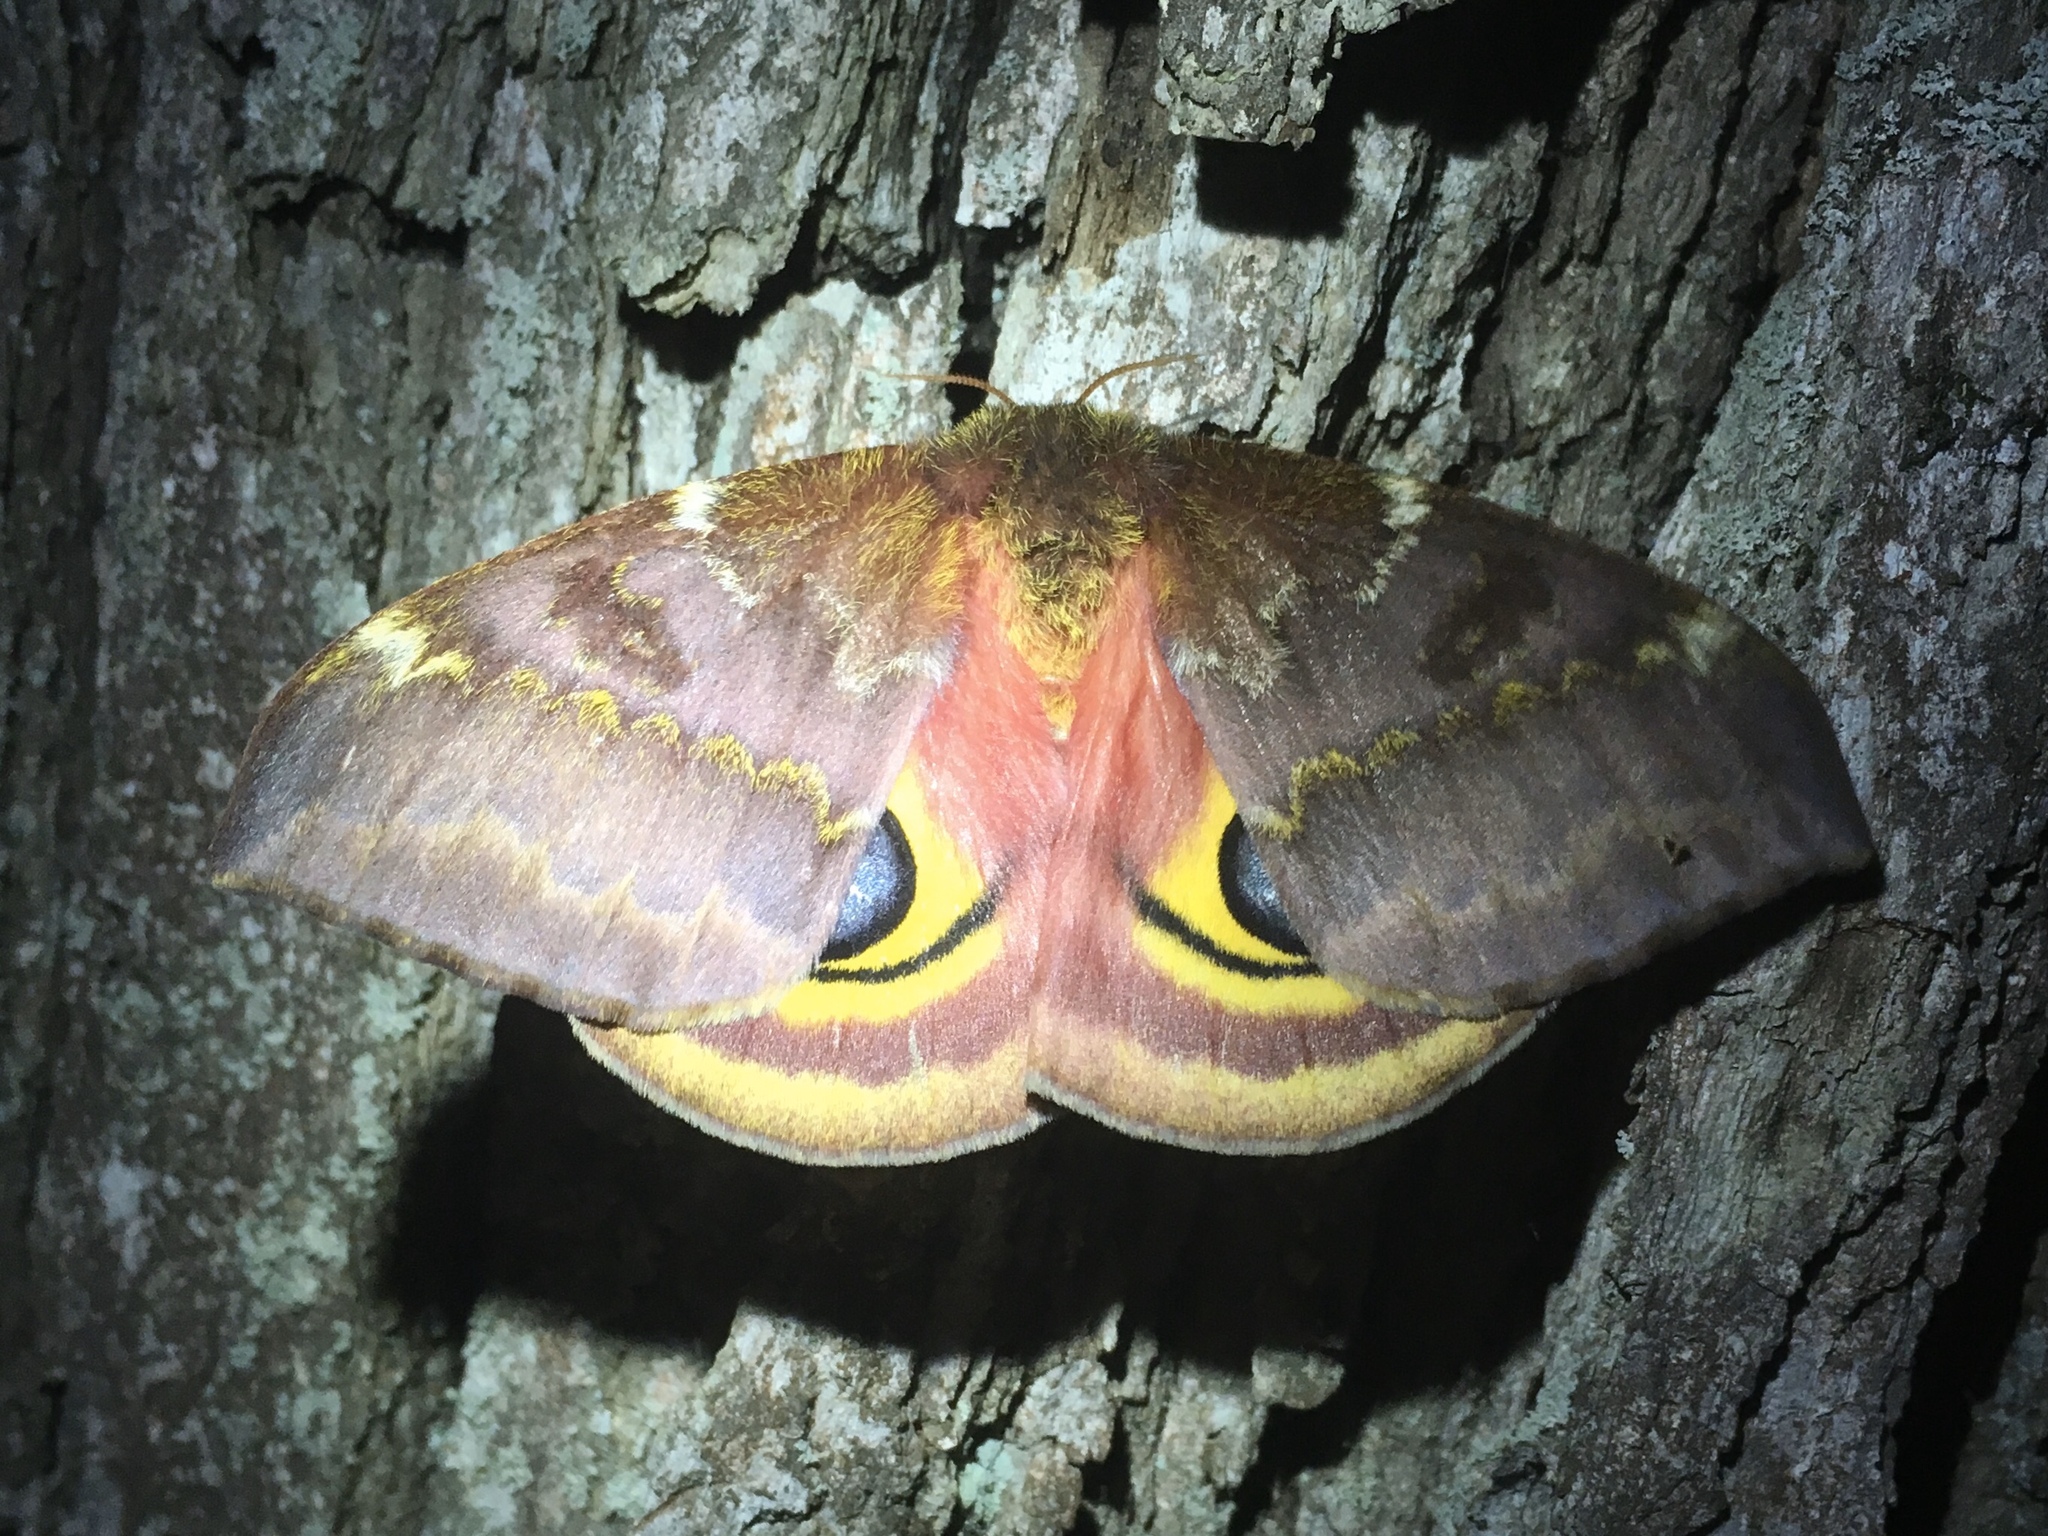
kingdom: Animalia
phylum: Arthropoda
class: Insecta
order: Lepidoptera
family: Saturniidae
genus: Automeris
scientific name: Automeris io
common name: Io moth
